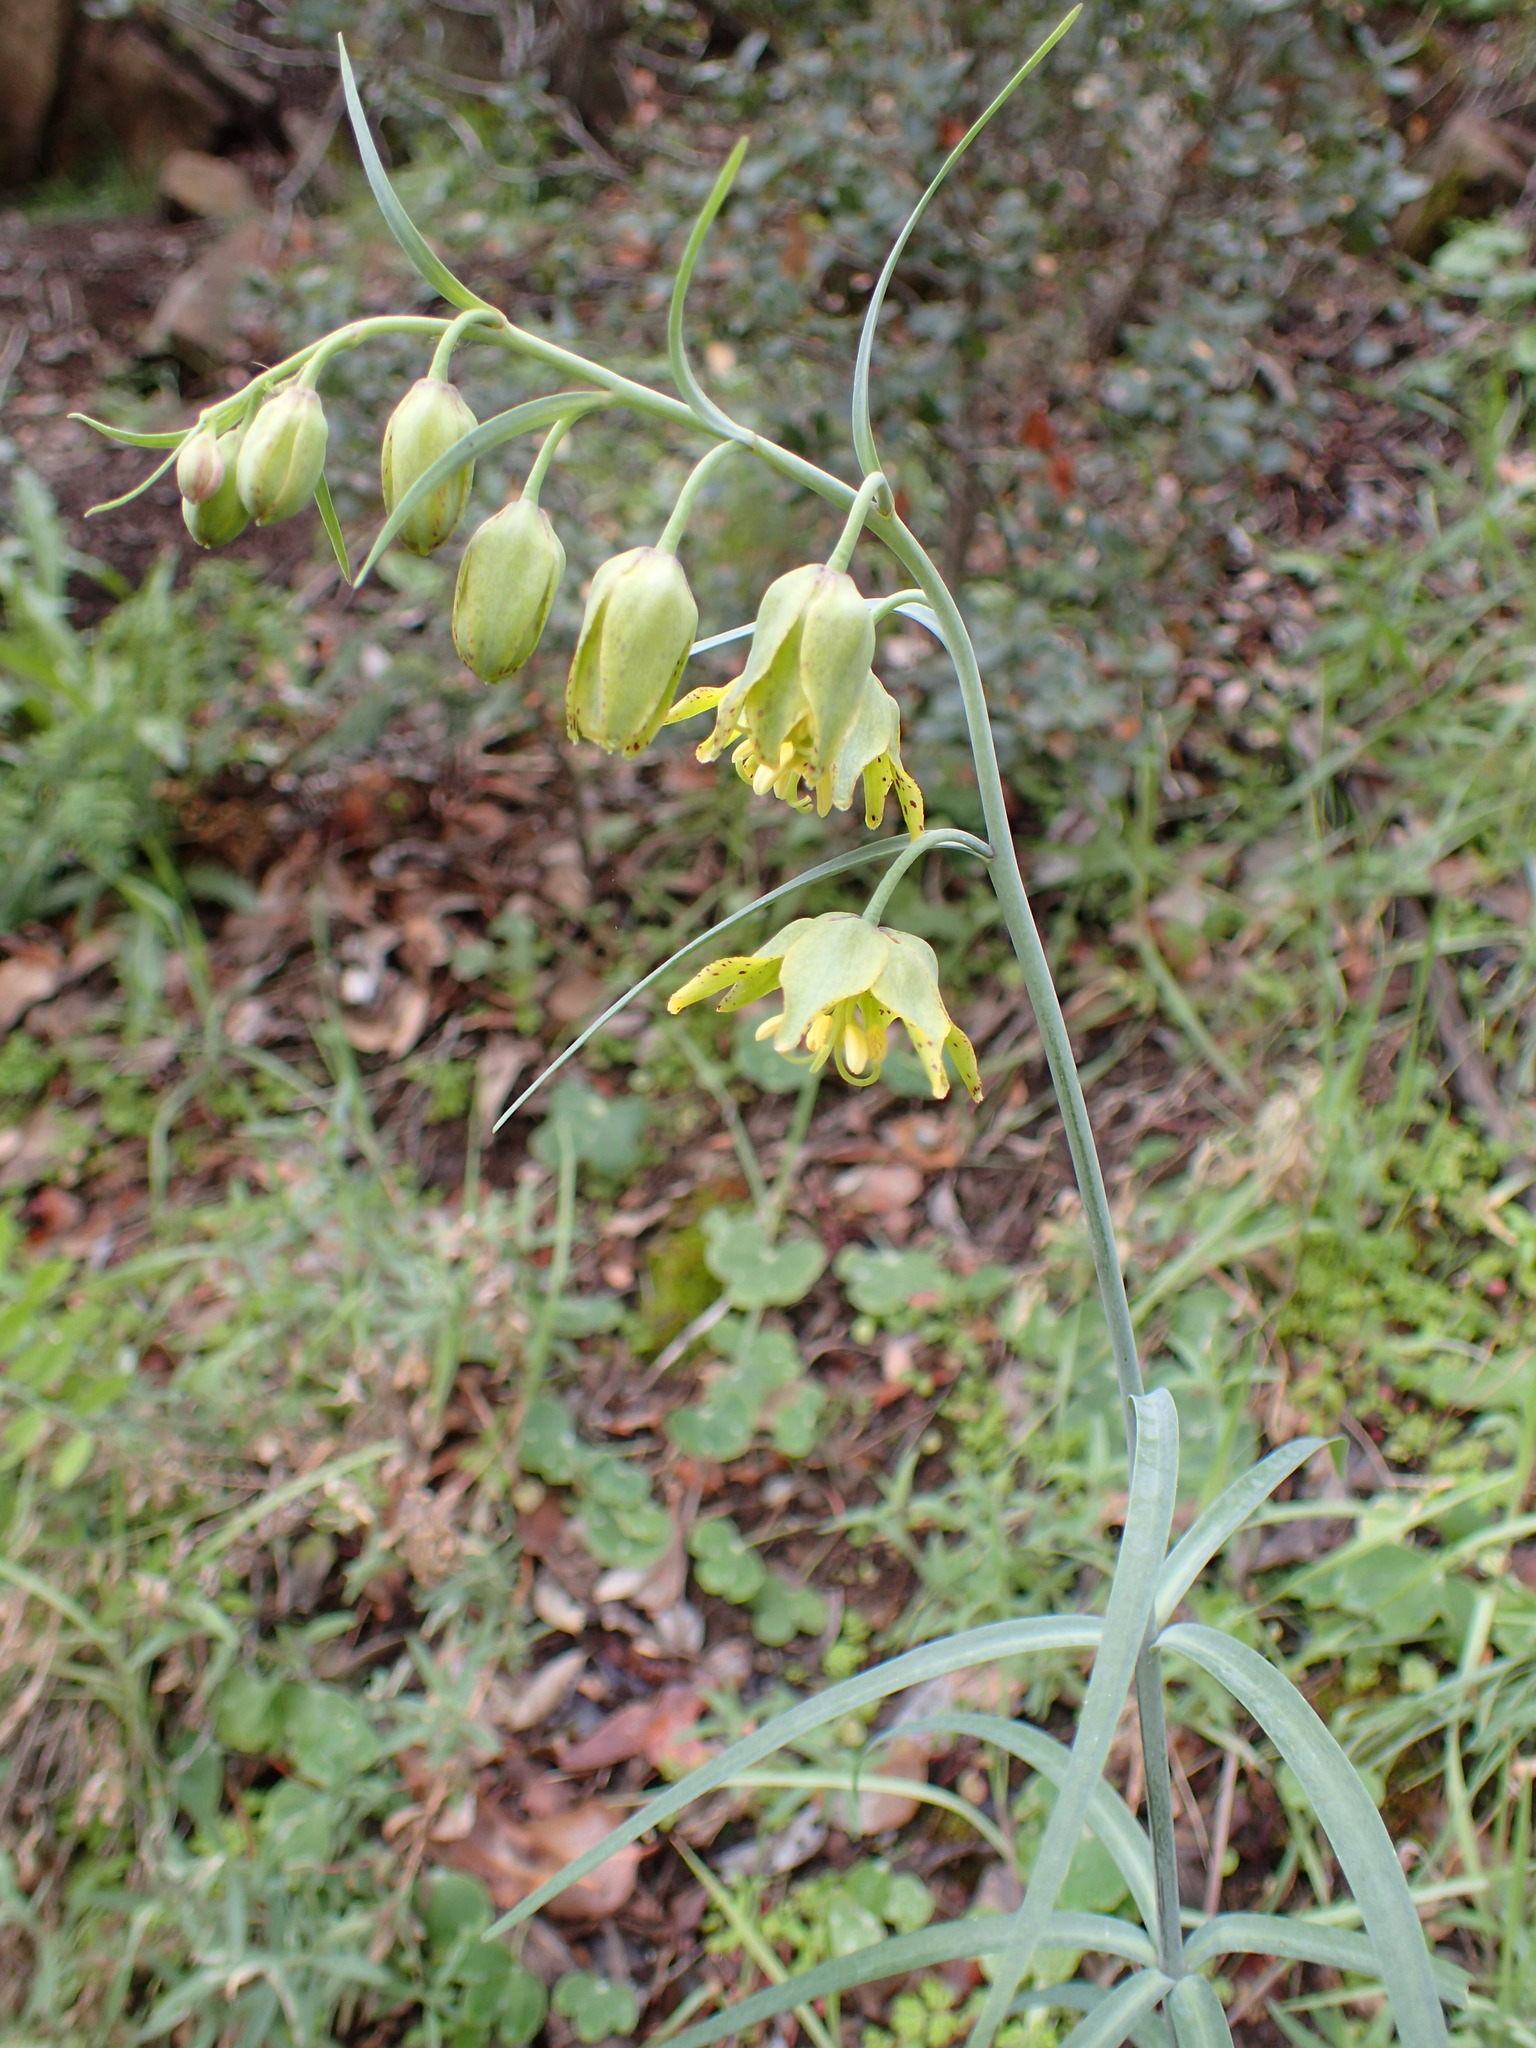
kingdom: Plantae
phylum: Tracheophyta
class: Liliopsida
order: Liliales
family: Liliaceae
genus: Fritillaria
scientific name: Fritillaria ojaiensis
